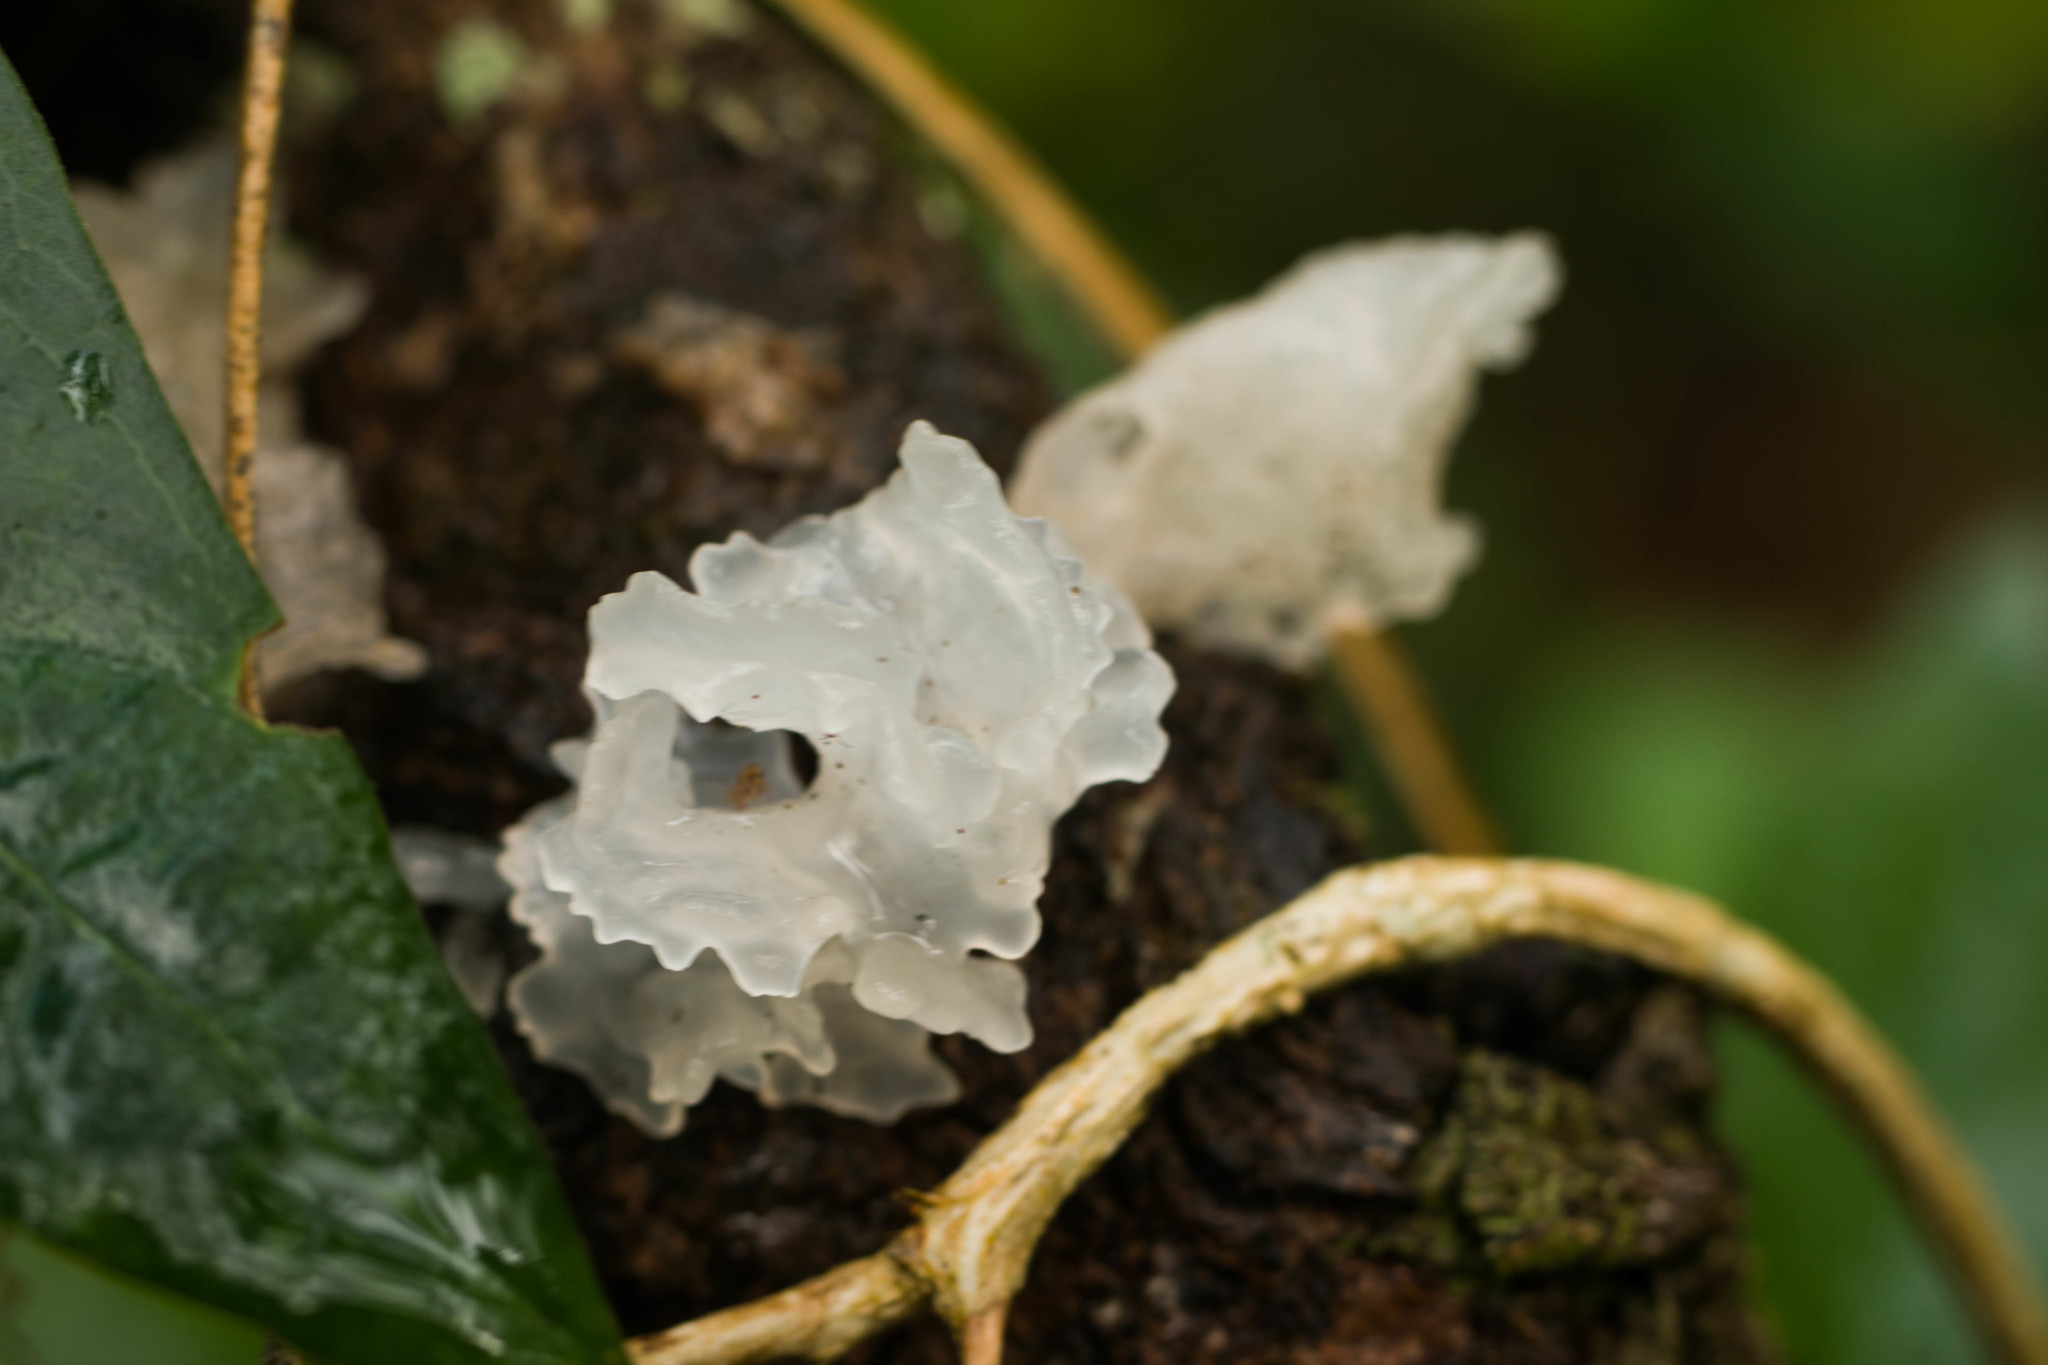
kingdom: Fungi
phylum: Basidiomycota
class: Tremellomycetes
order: Tremellales
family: Tremellaceae
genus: Tremella
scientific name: Tremella fuciformis
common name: Snow fungus
